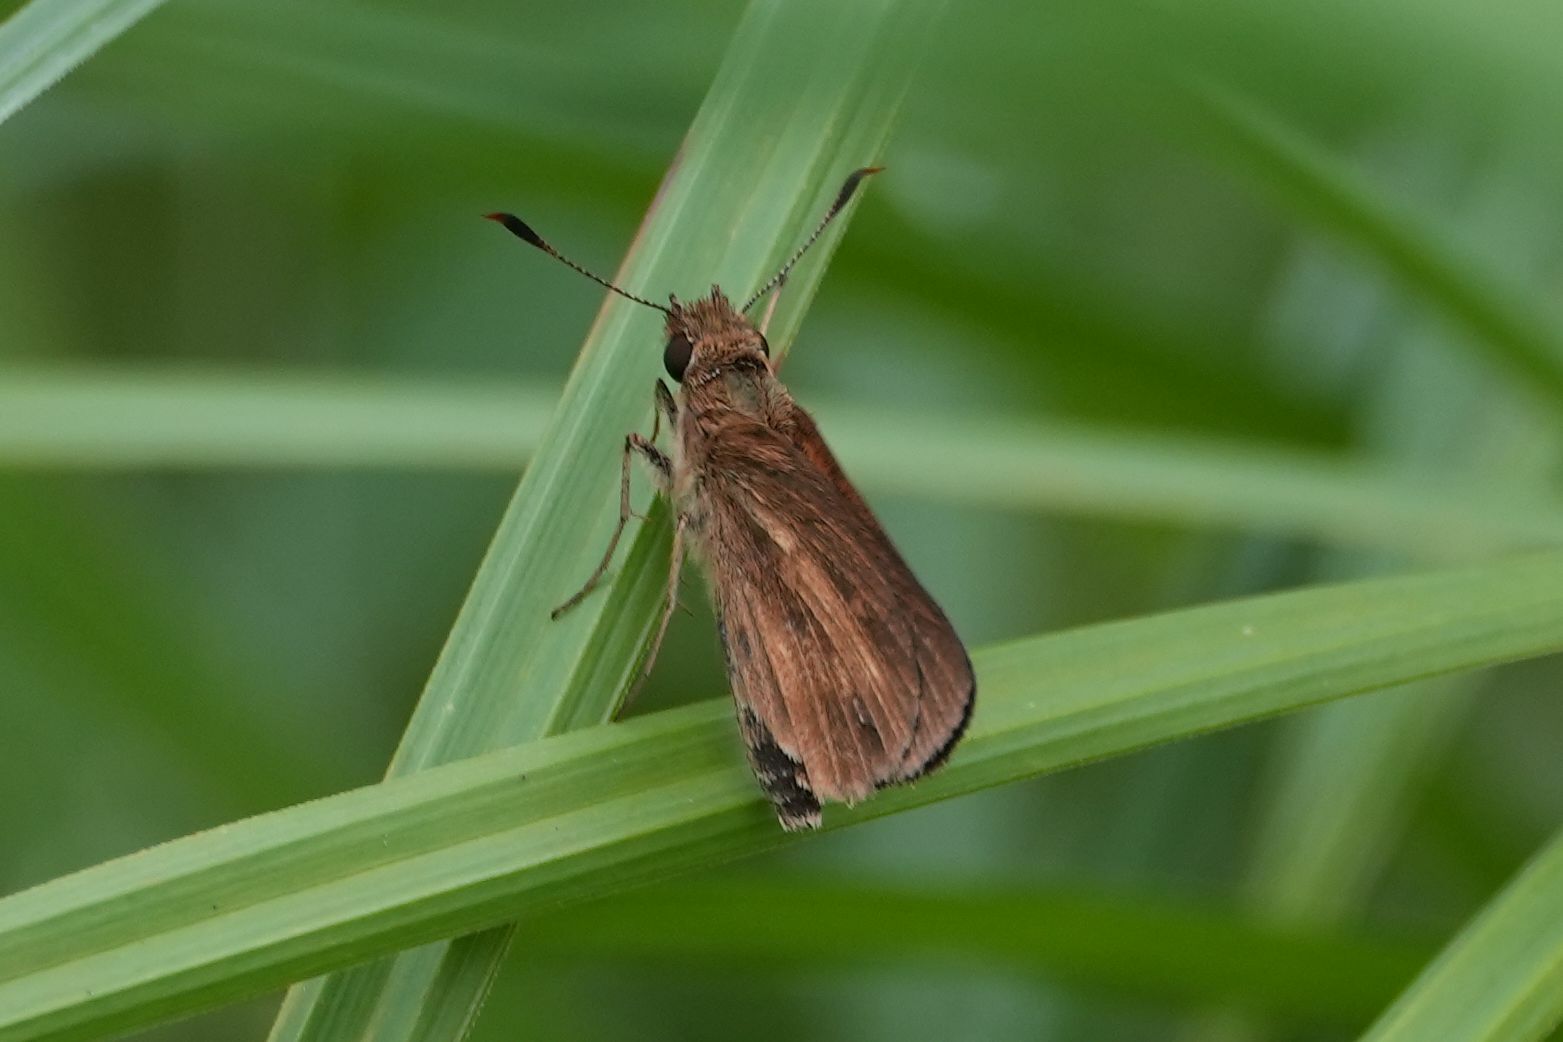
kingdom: Animalia
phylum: Arthropoda
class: Insecta
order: Lepidoptera
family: Hesperiidae
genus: Poanes
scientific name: Poanes viator
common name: Broad-winged skipper
